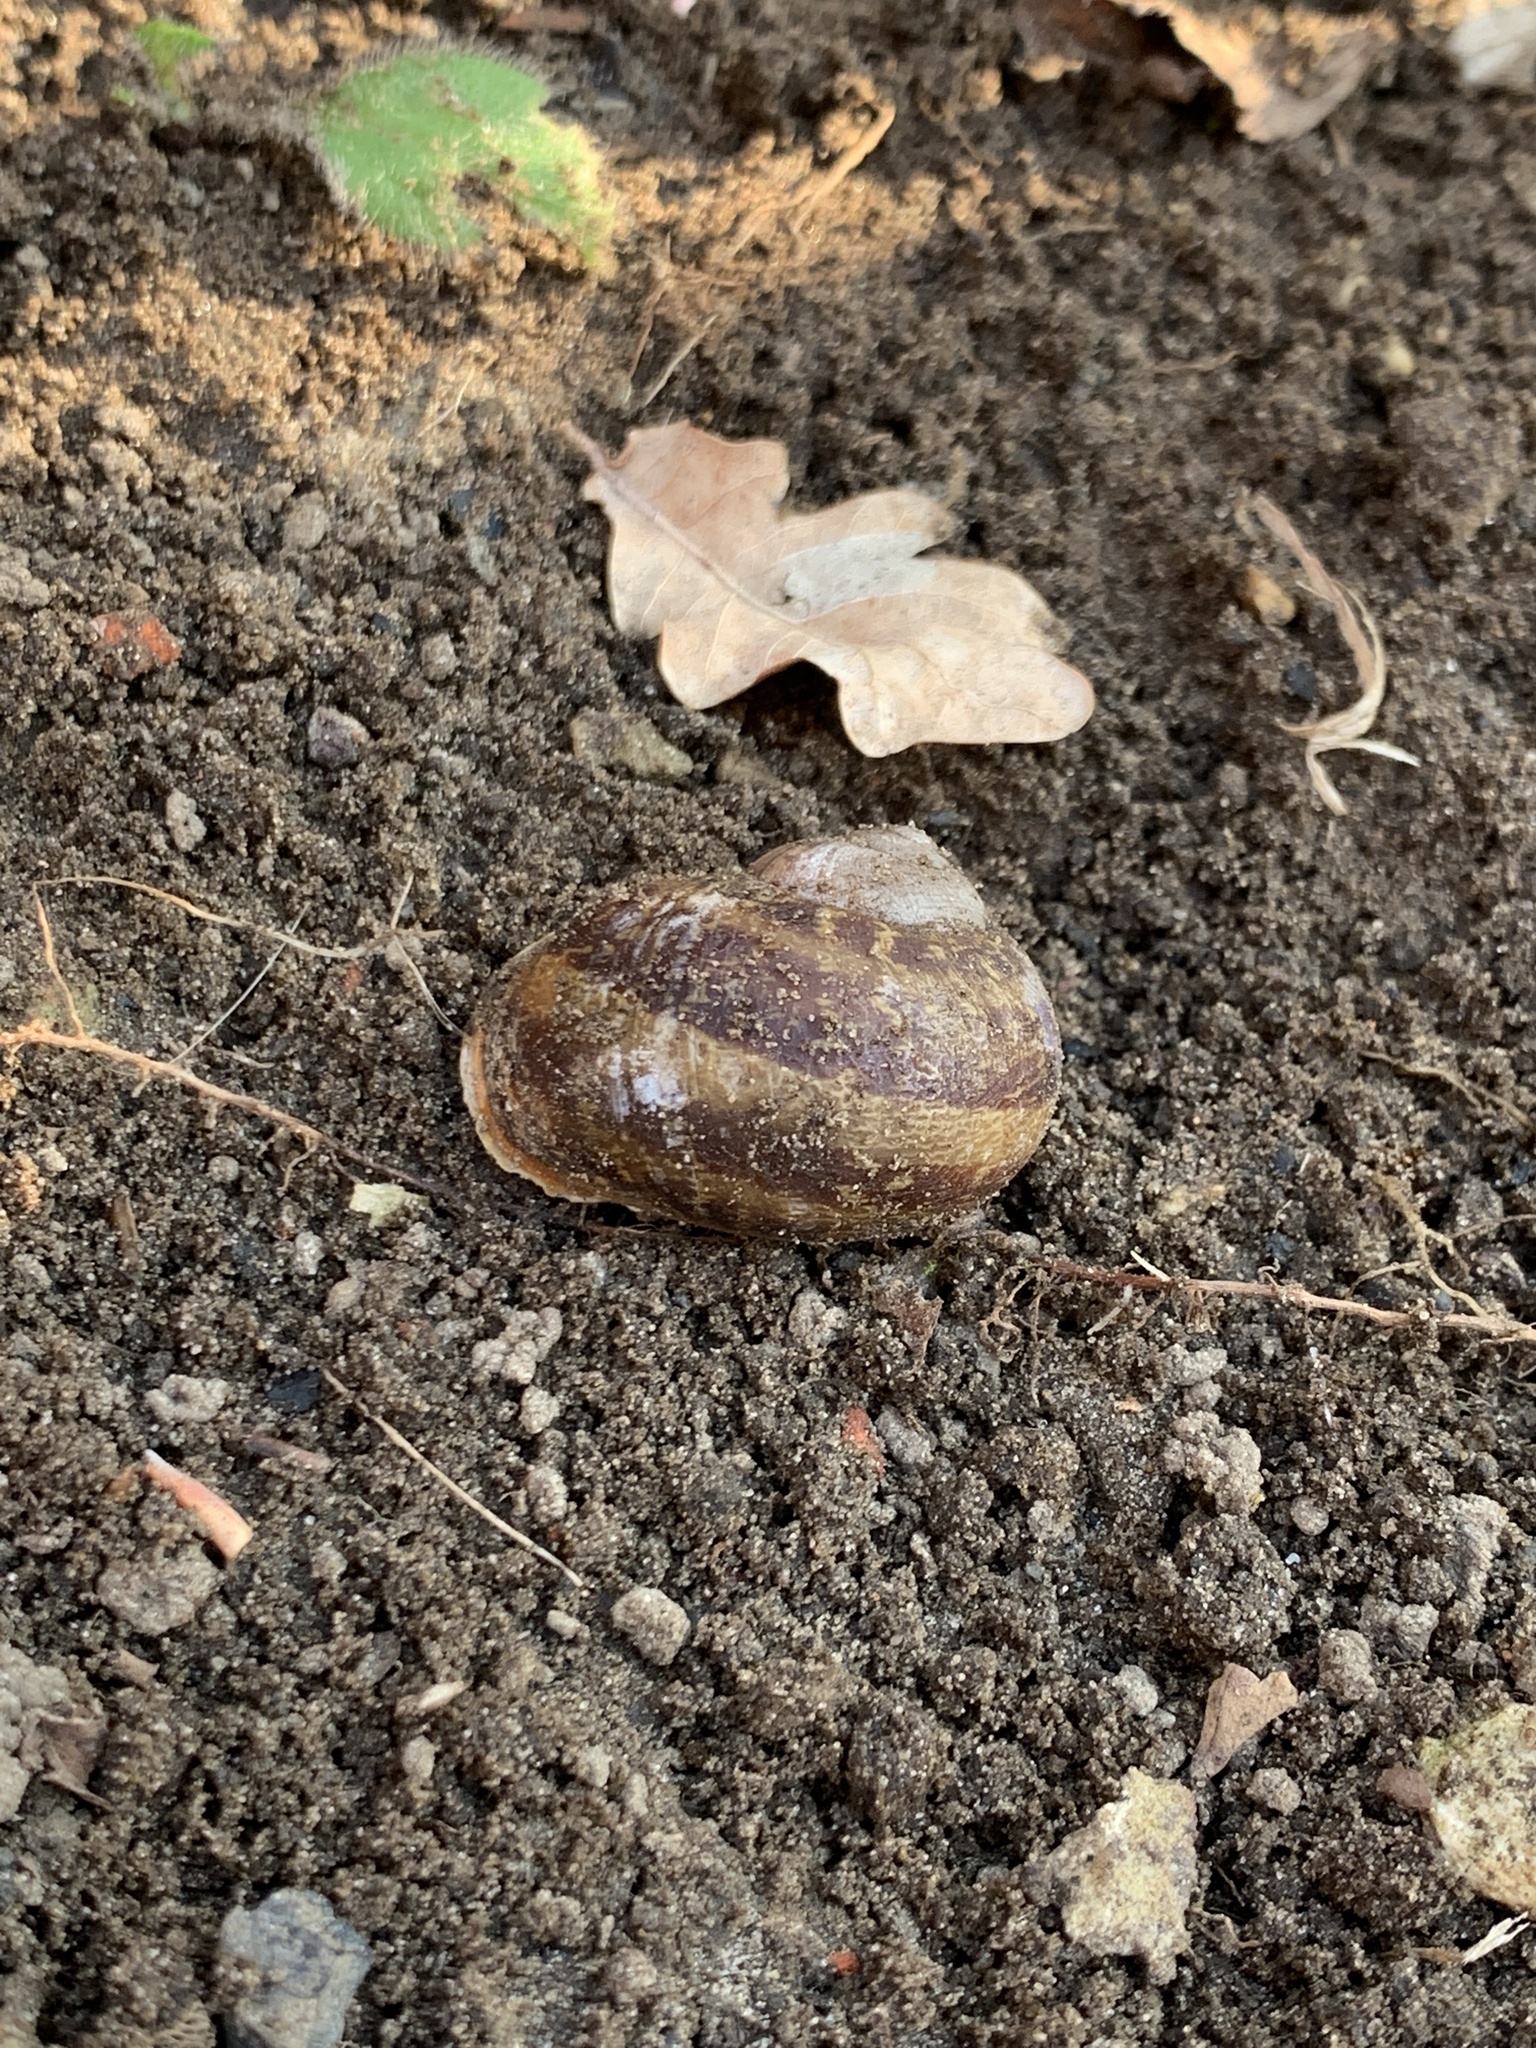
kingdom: Animalia
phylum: Mollusca
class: Gastropoda
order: Stylommatophora
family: Helicidae
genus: Cornu
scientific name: Cornu aspersum
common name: Brown garden snail
